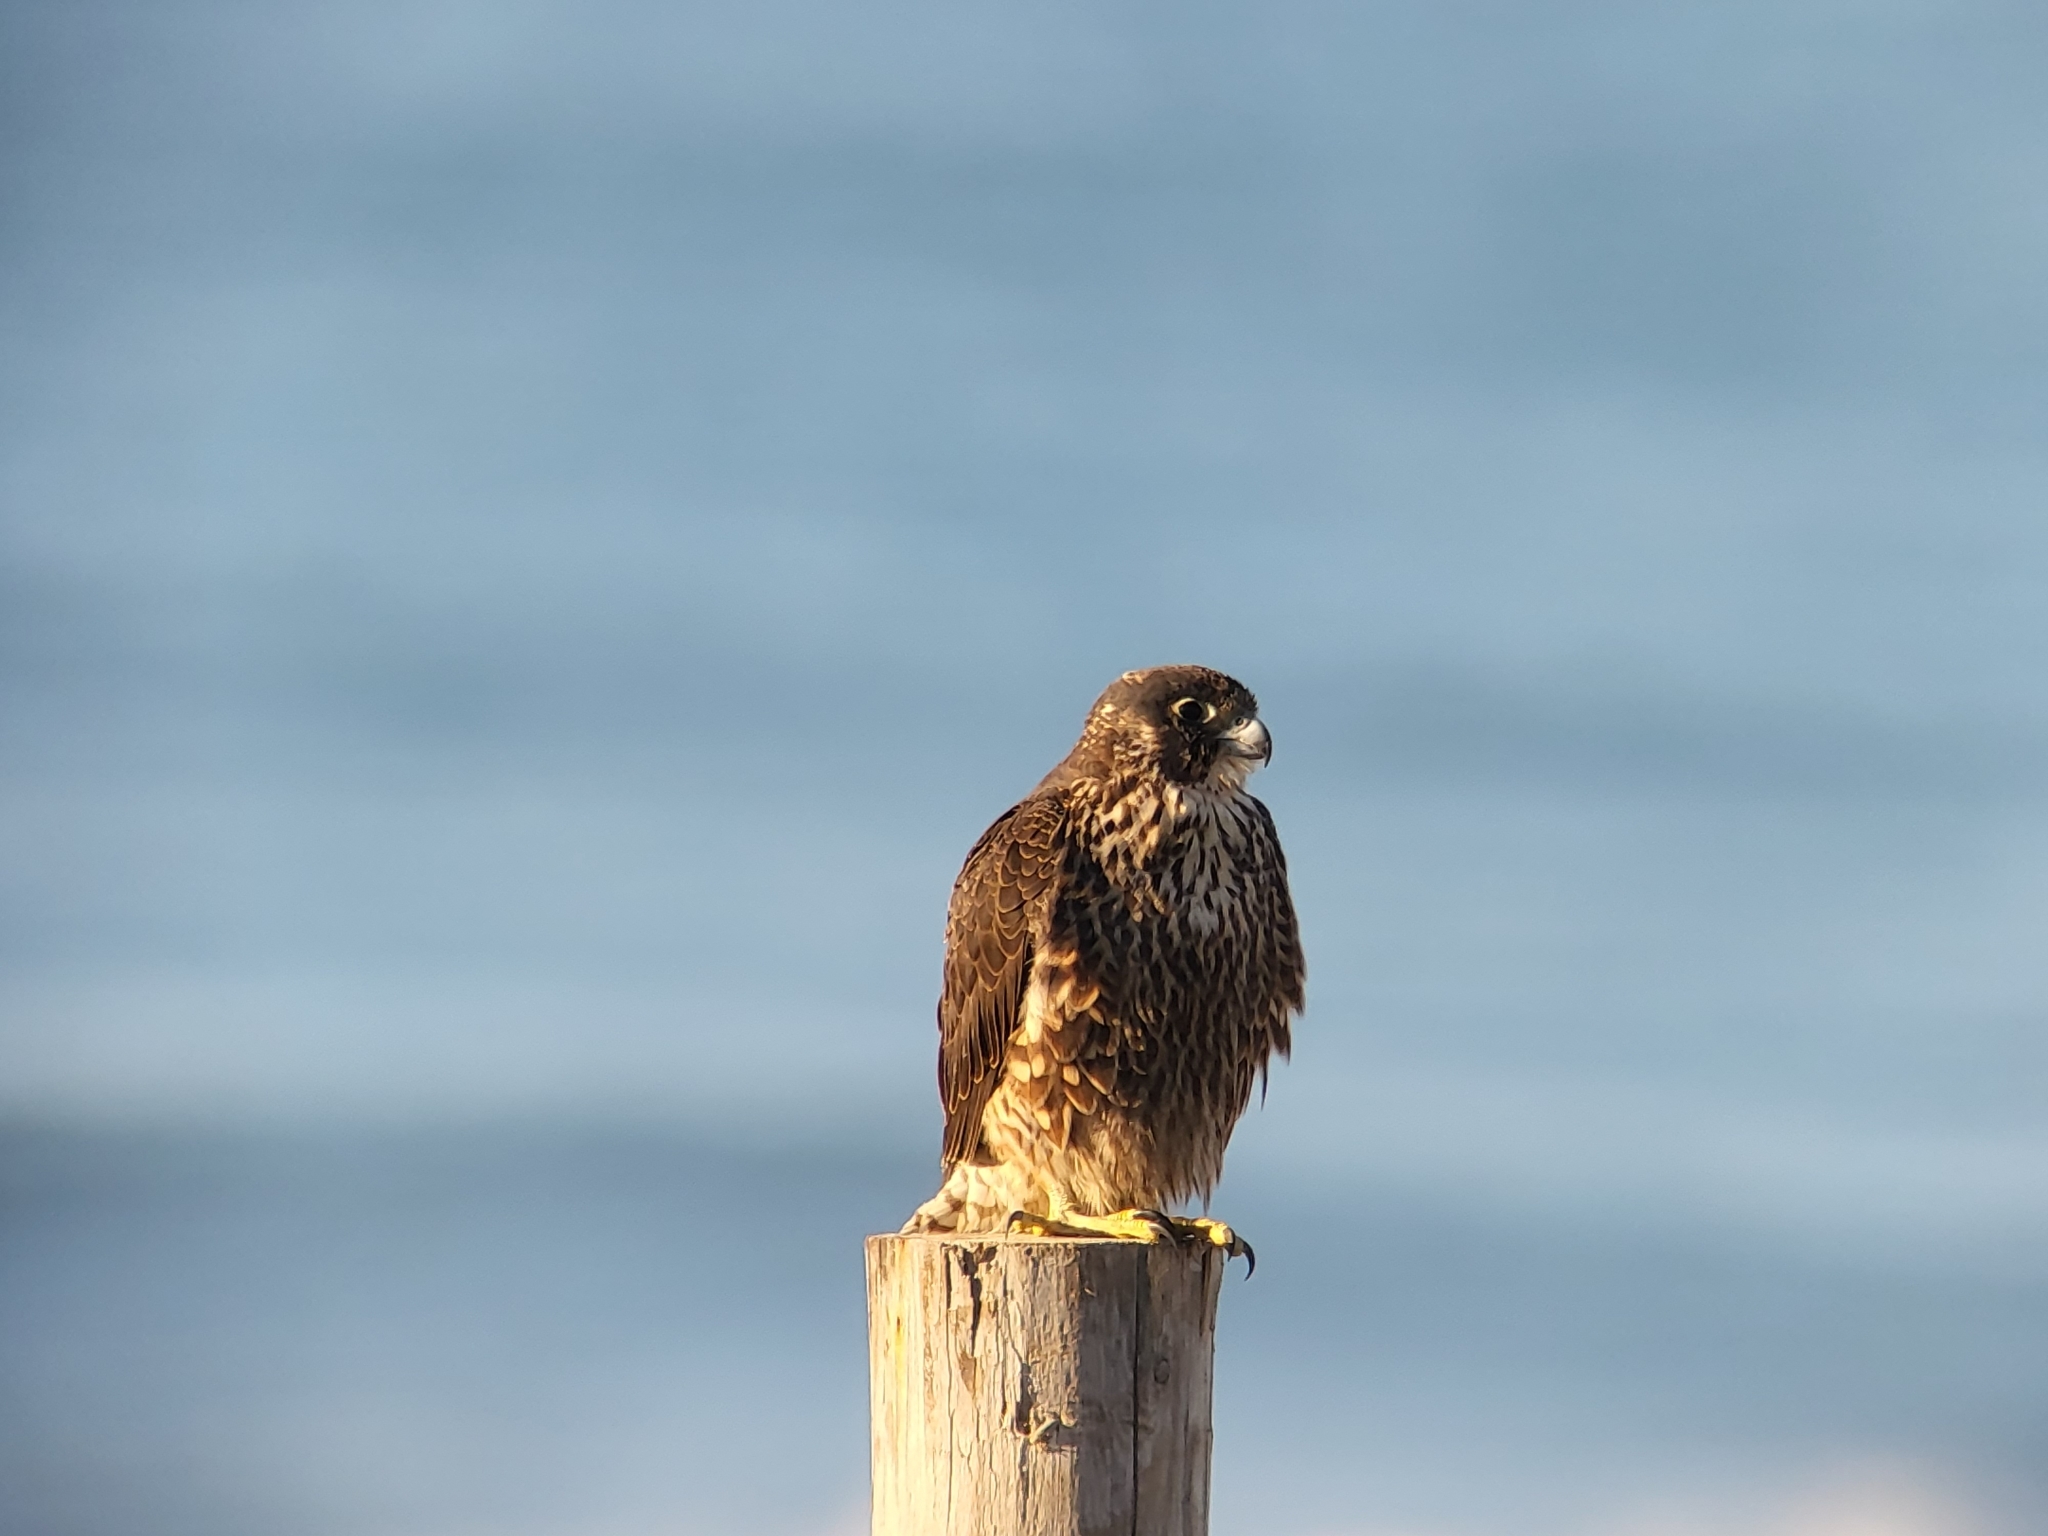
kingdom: Animalia
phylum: Chordata
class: Aves
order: Falconiformes
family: Falconidae
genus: Falco
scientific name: Falco peregrinus
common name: Peregrine falcon
